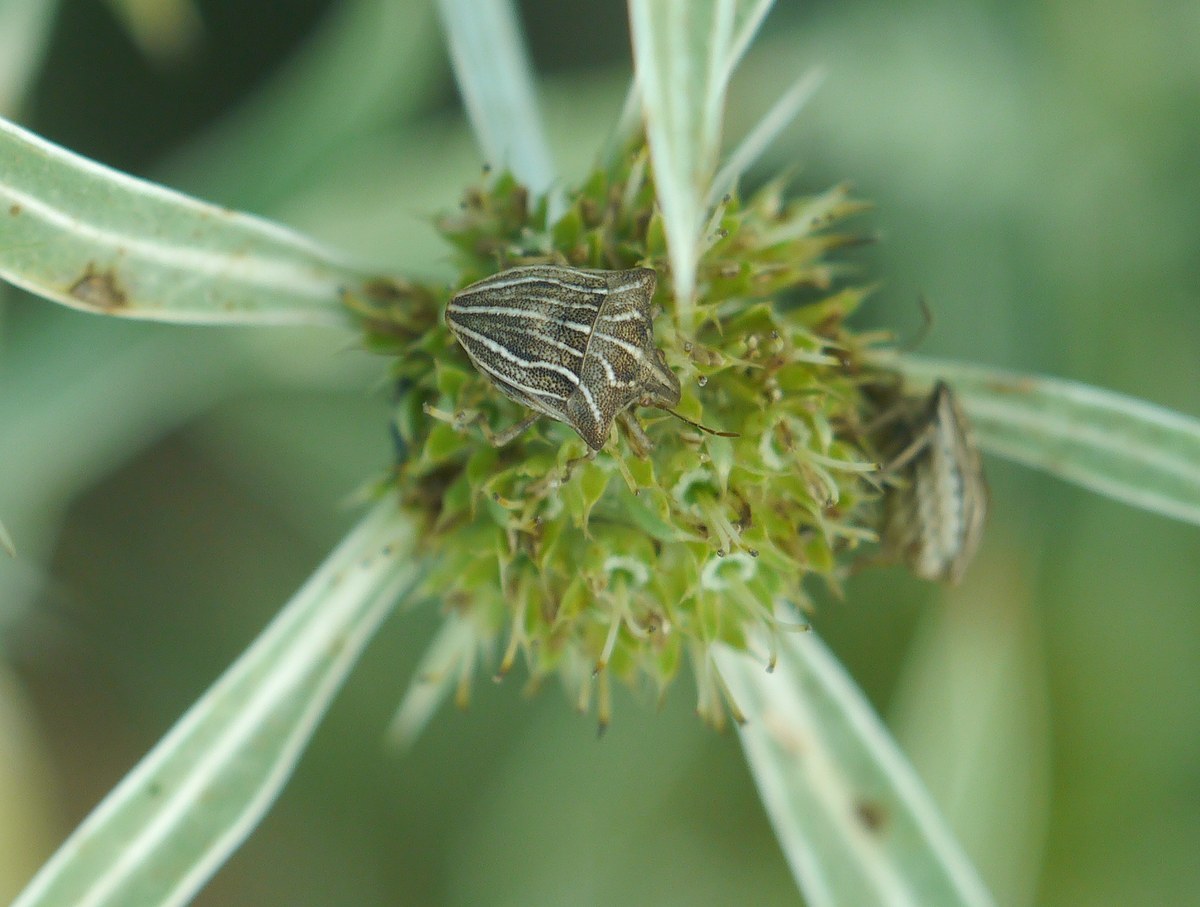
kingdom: Animalia
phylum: Arthropoda
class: Insecta
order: Hemiptera
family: Pentatomidae
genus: Ancyrosoma
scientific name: Ancyrosoma leucogrammes
